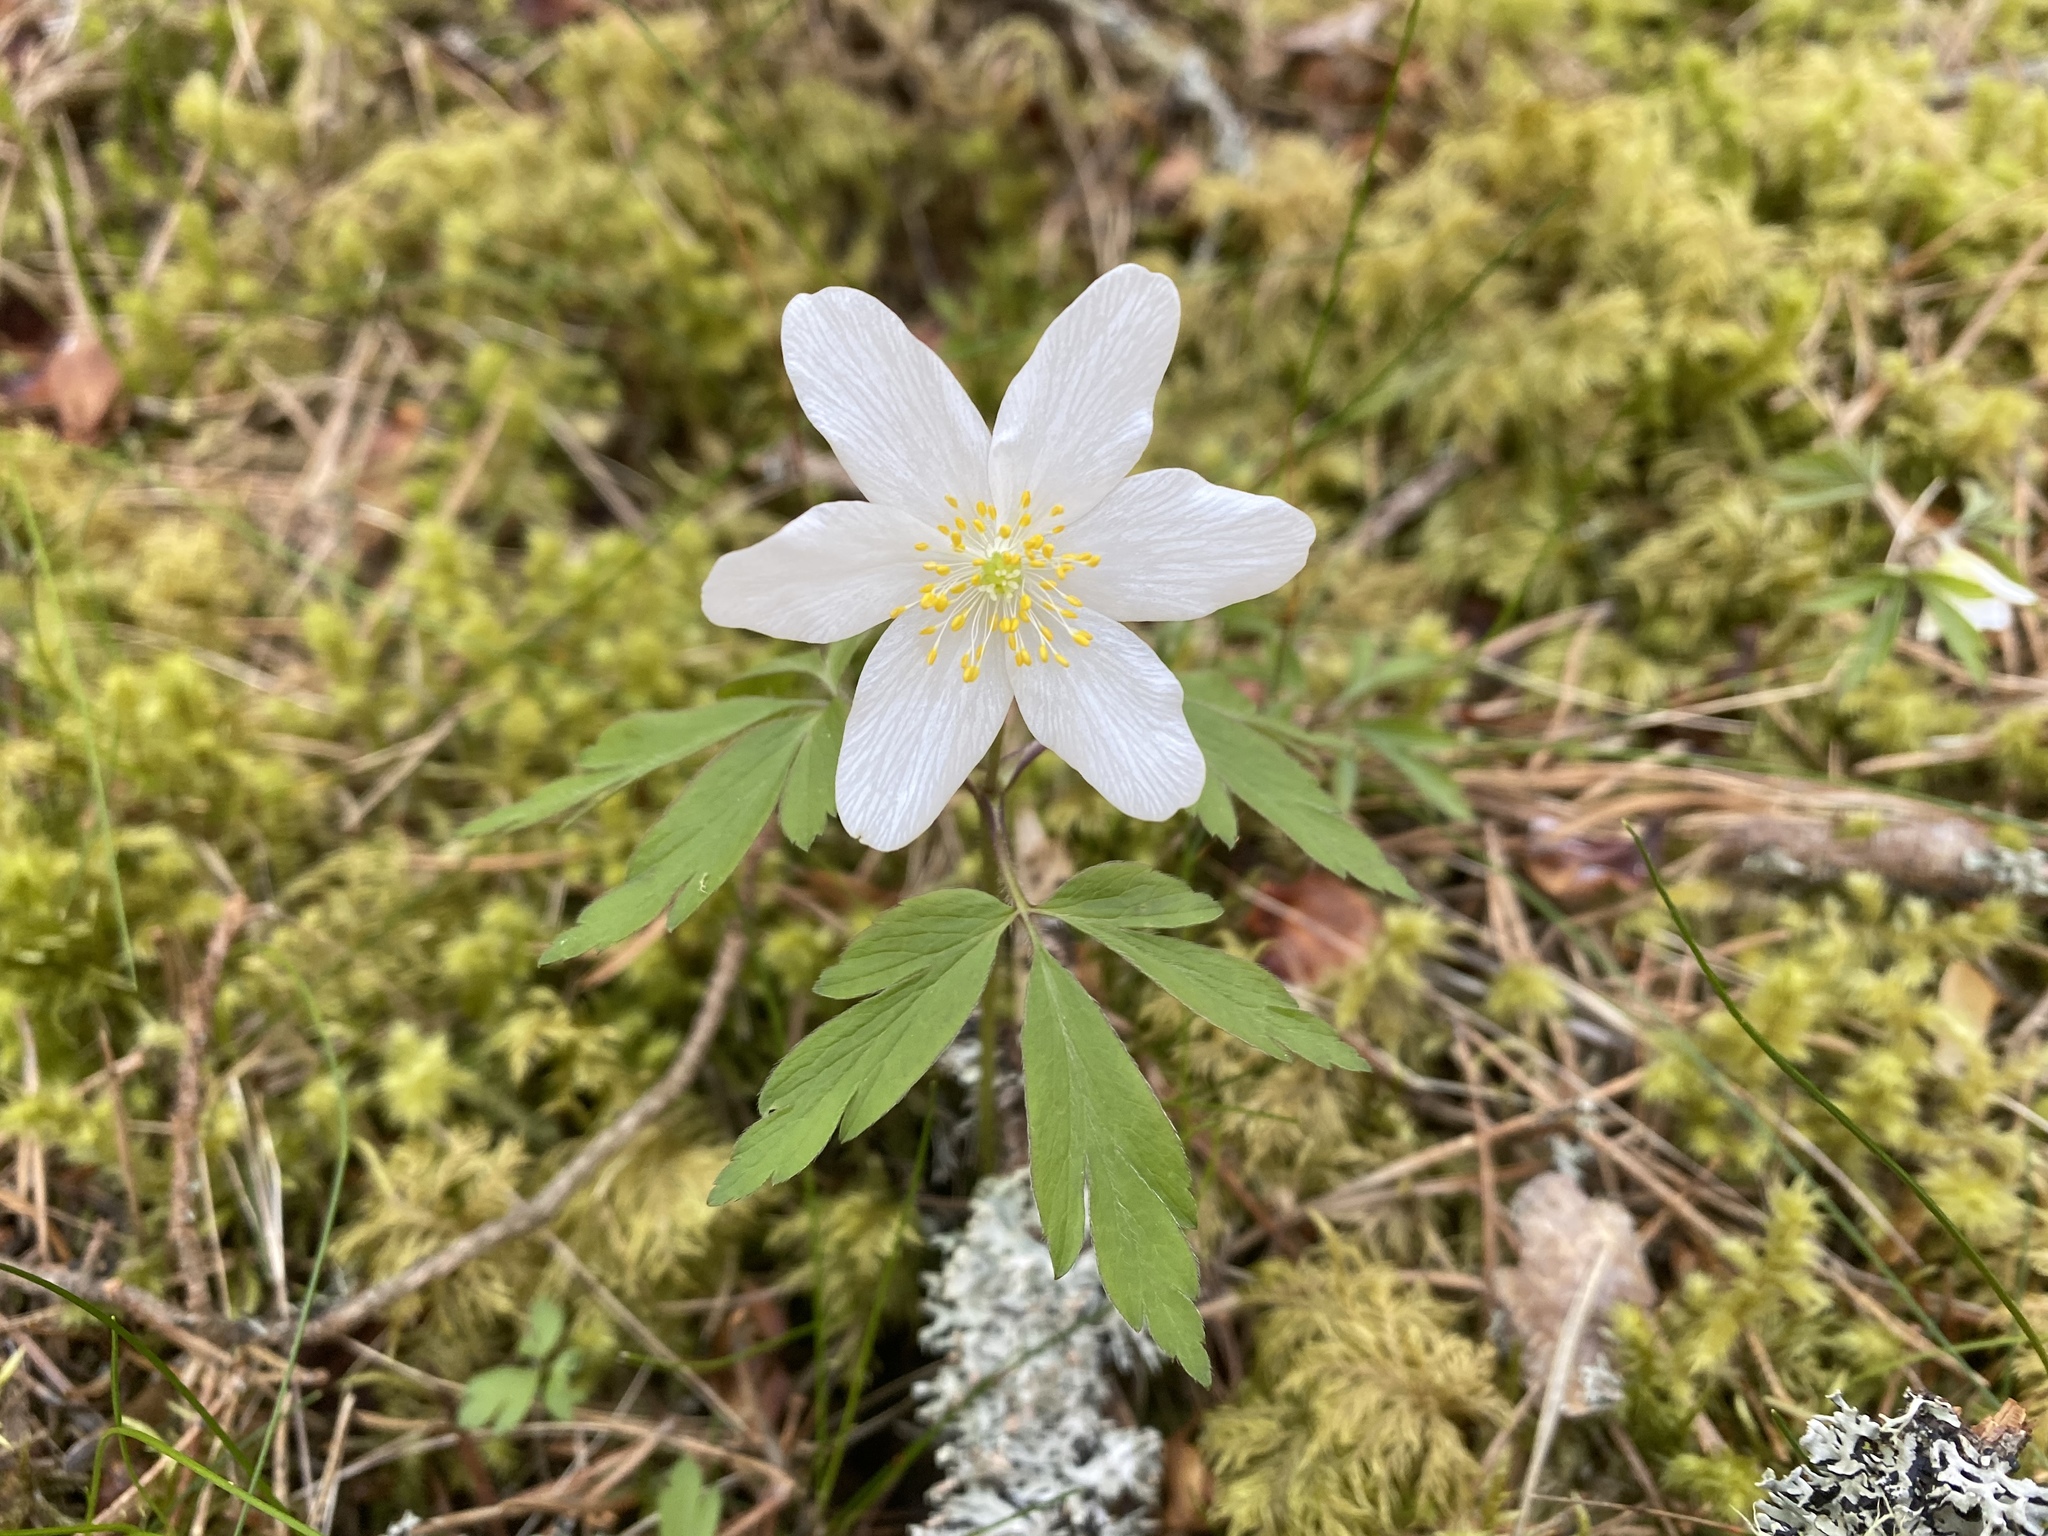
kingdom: Plantae
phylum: Tracheophyta
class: Magnoliopsida
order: Ranunculales
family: Ranunculaceae
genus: Anemone
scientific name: Anemone nemorosa
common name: Wood anemone
